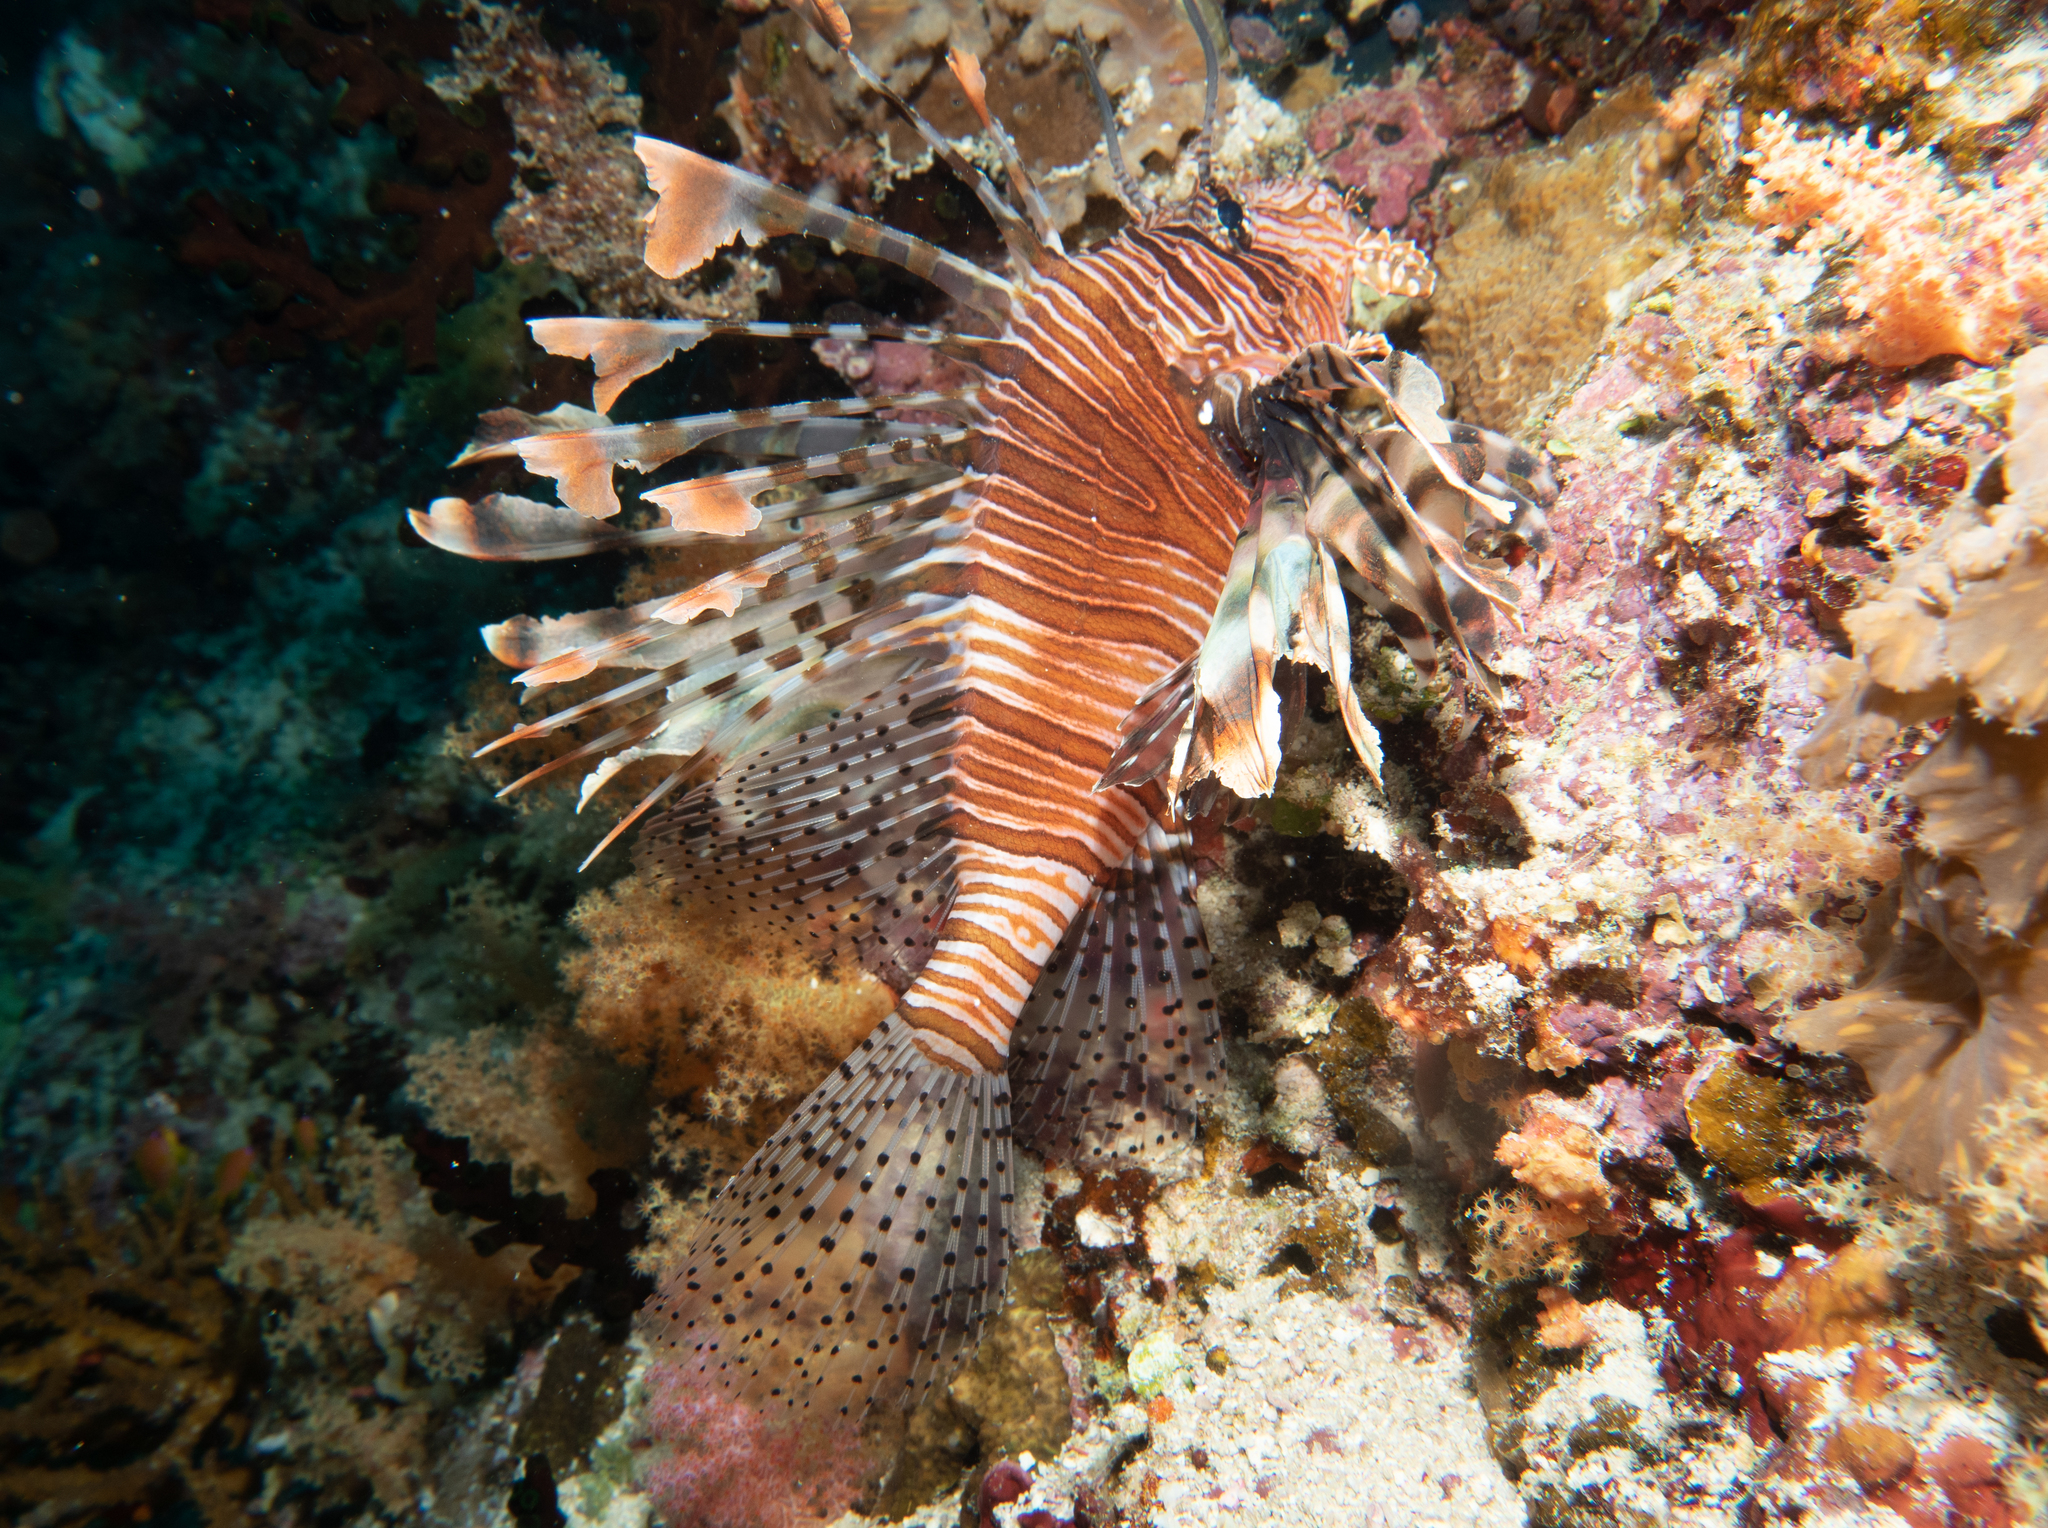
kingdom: Animalia
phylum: Chordata
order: Scorpaeniformes
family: Scorpaenidae
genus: Pterois
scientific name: Pterois miles
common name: Devil firefish
